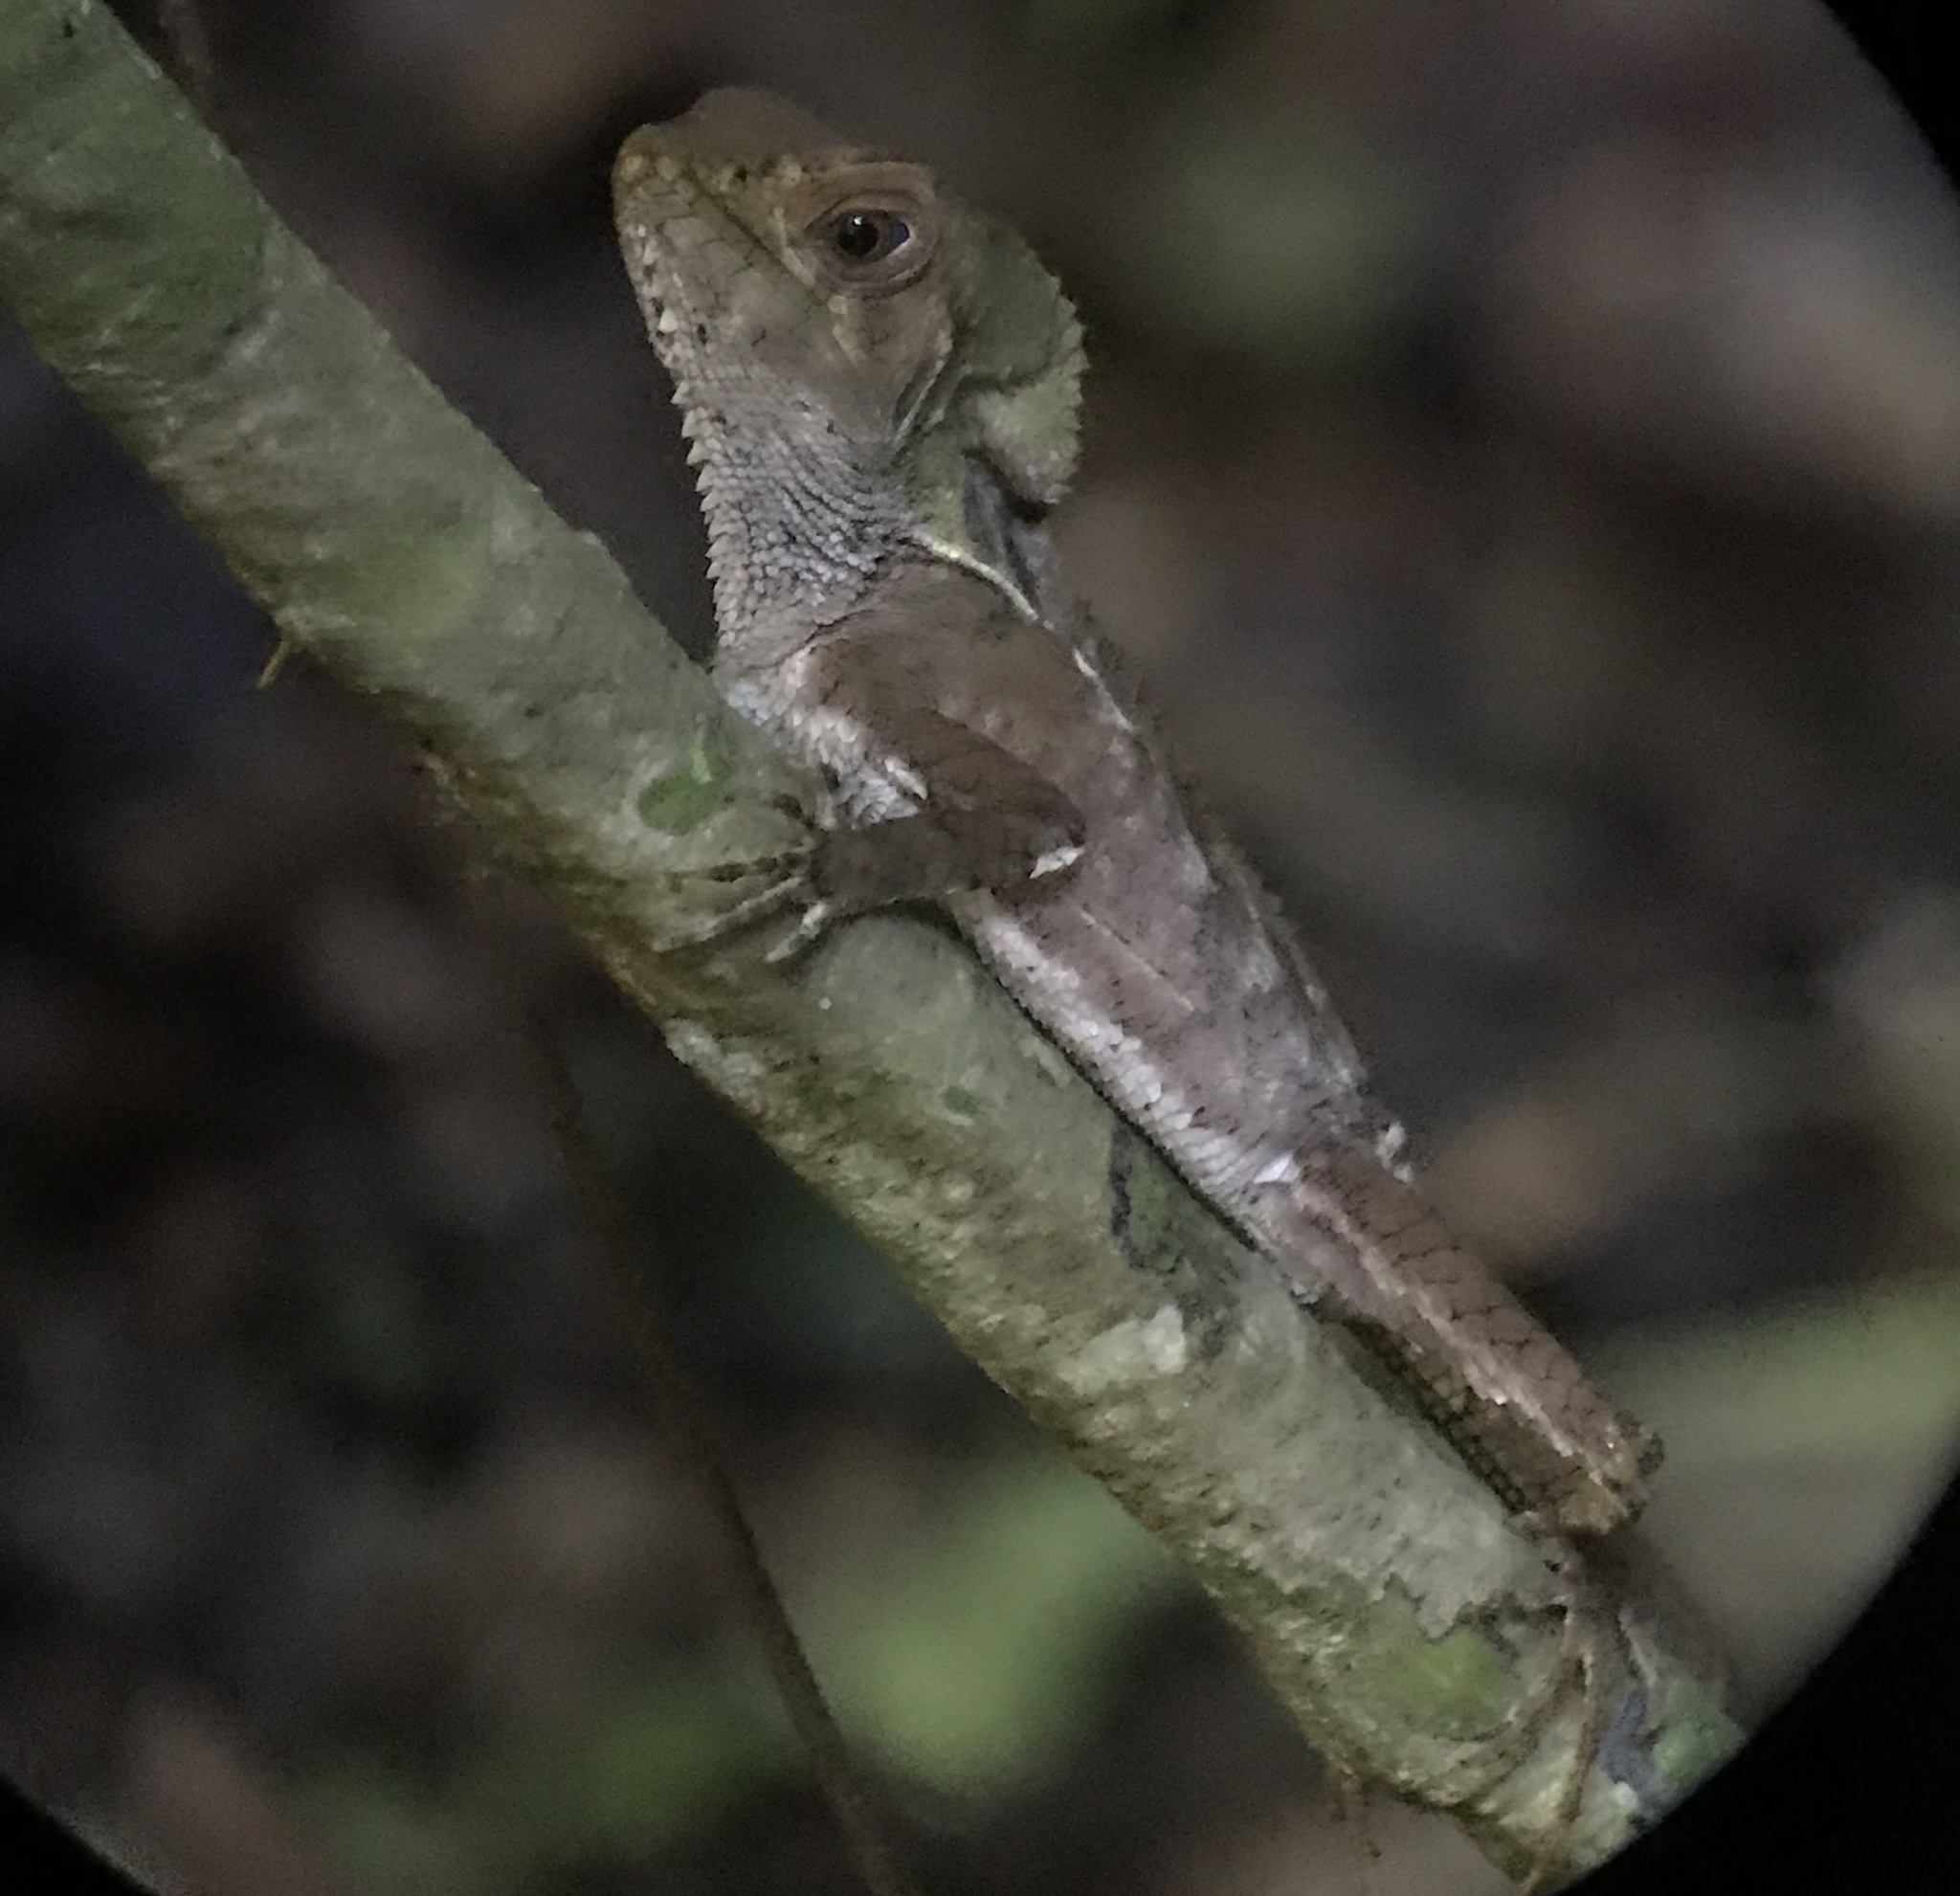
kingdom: Animalia
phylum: Chordata
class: Squamata
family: Corytophanidae
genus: Corytophanes
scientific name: Corytophanes cristatus
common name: Smooth helmeted iguana
